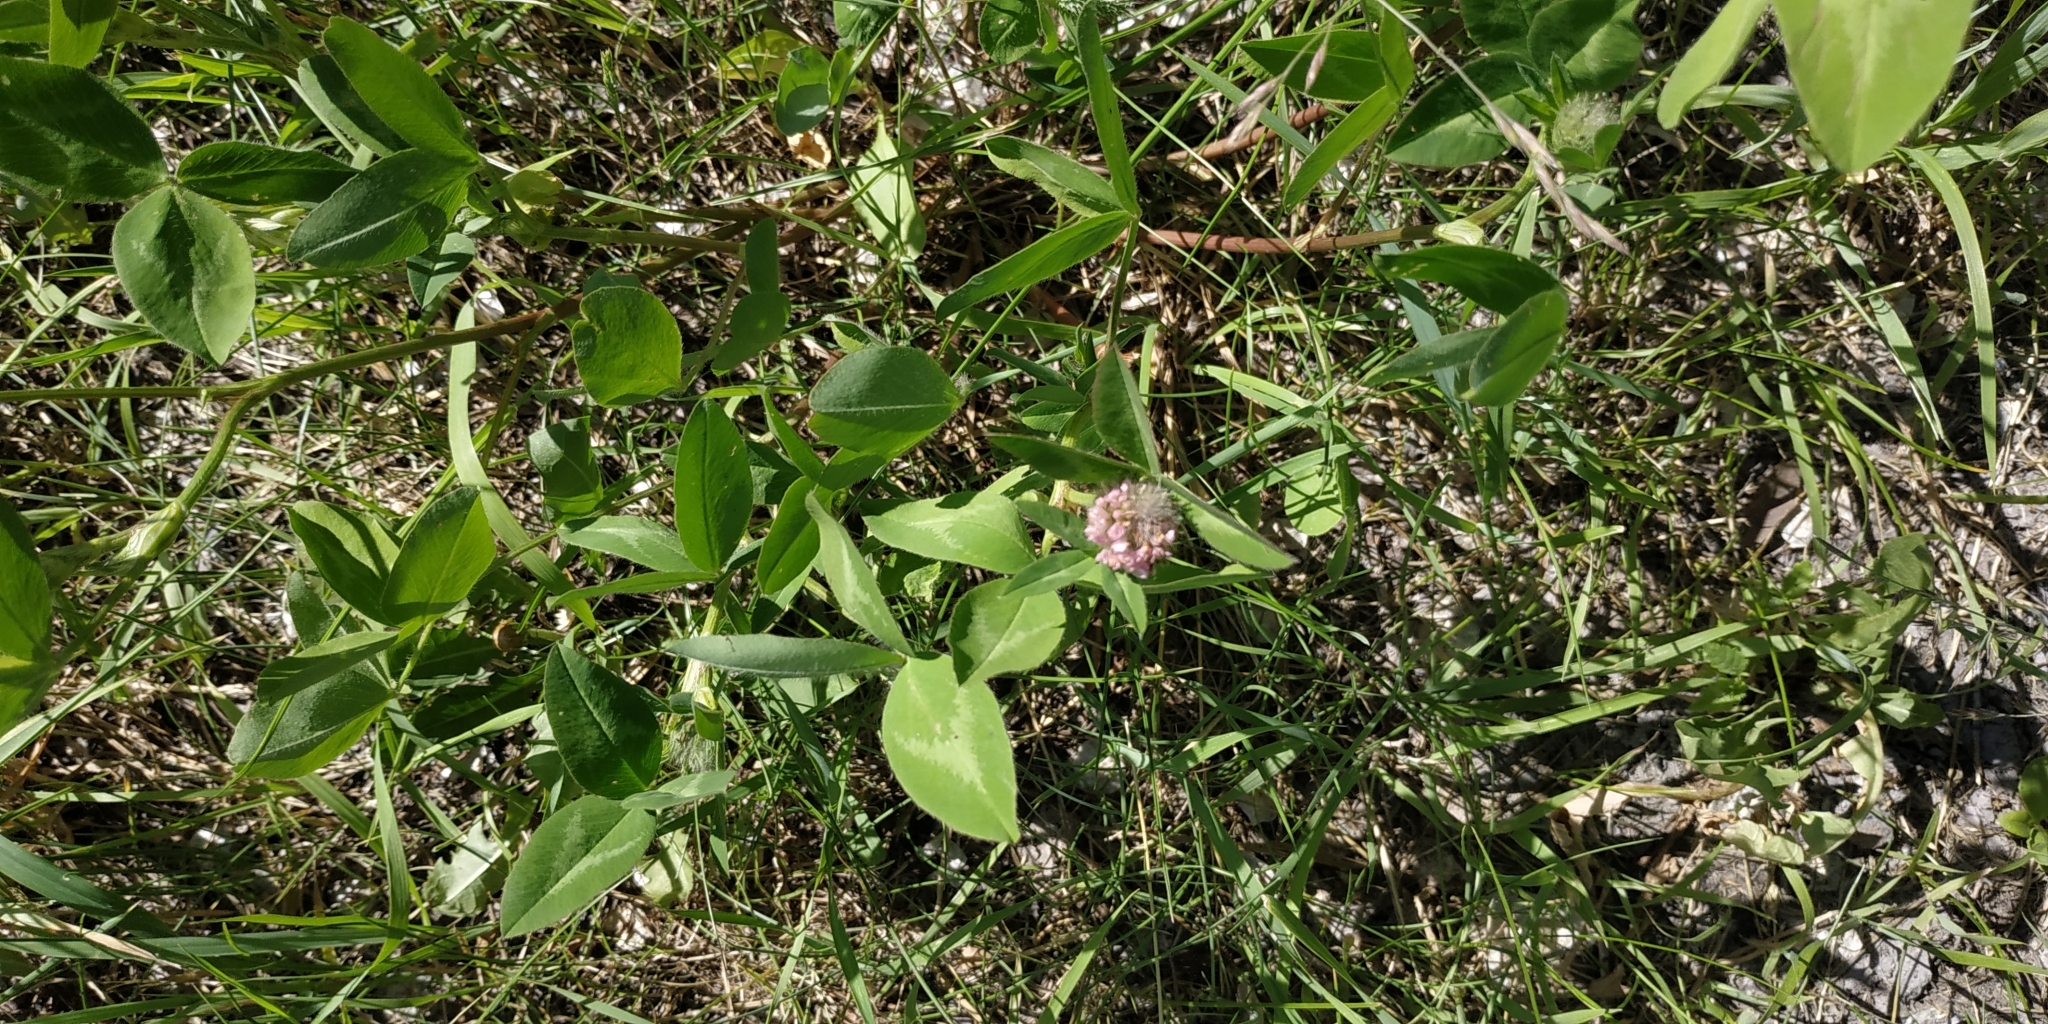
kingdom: Plantae
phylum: Tracheophyta
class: Magnoliopsida
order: Fabales
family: Fabaceae
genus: Trifolium
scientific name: Trifolium pratense
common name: Red clover
